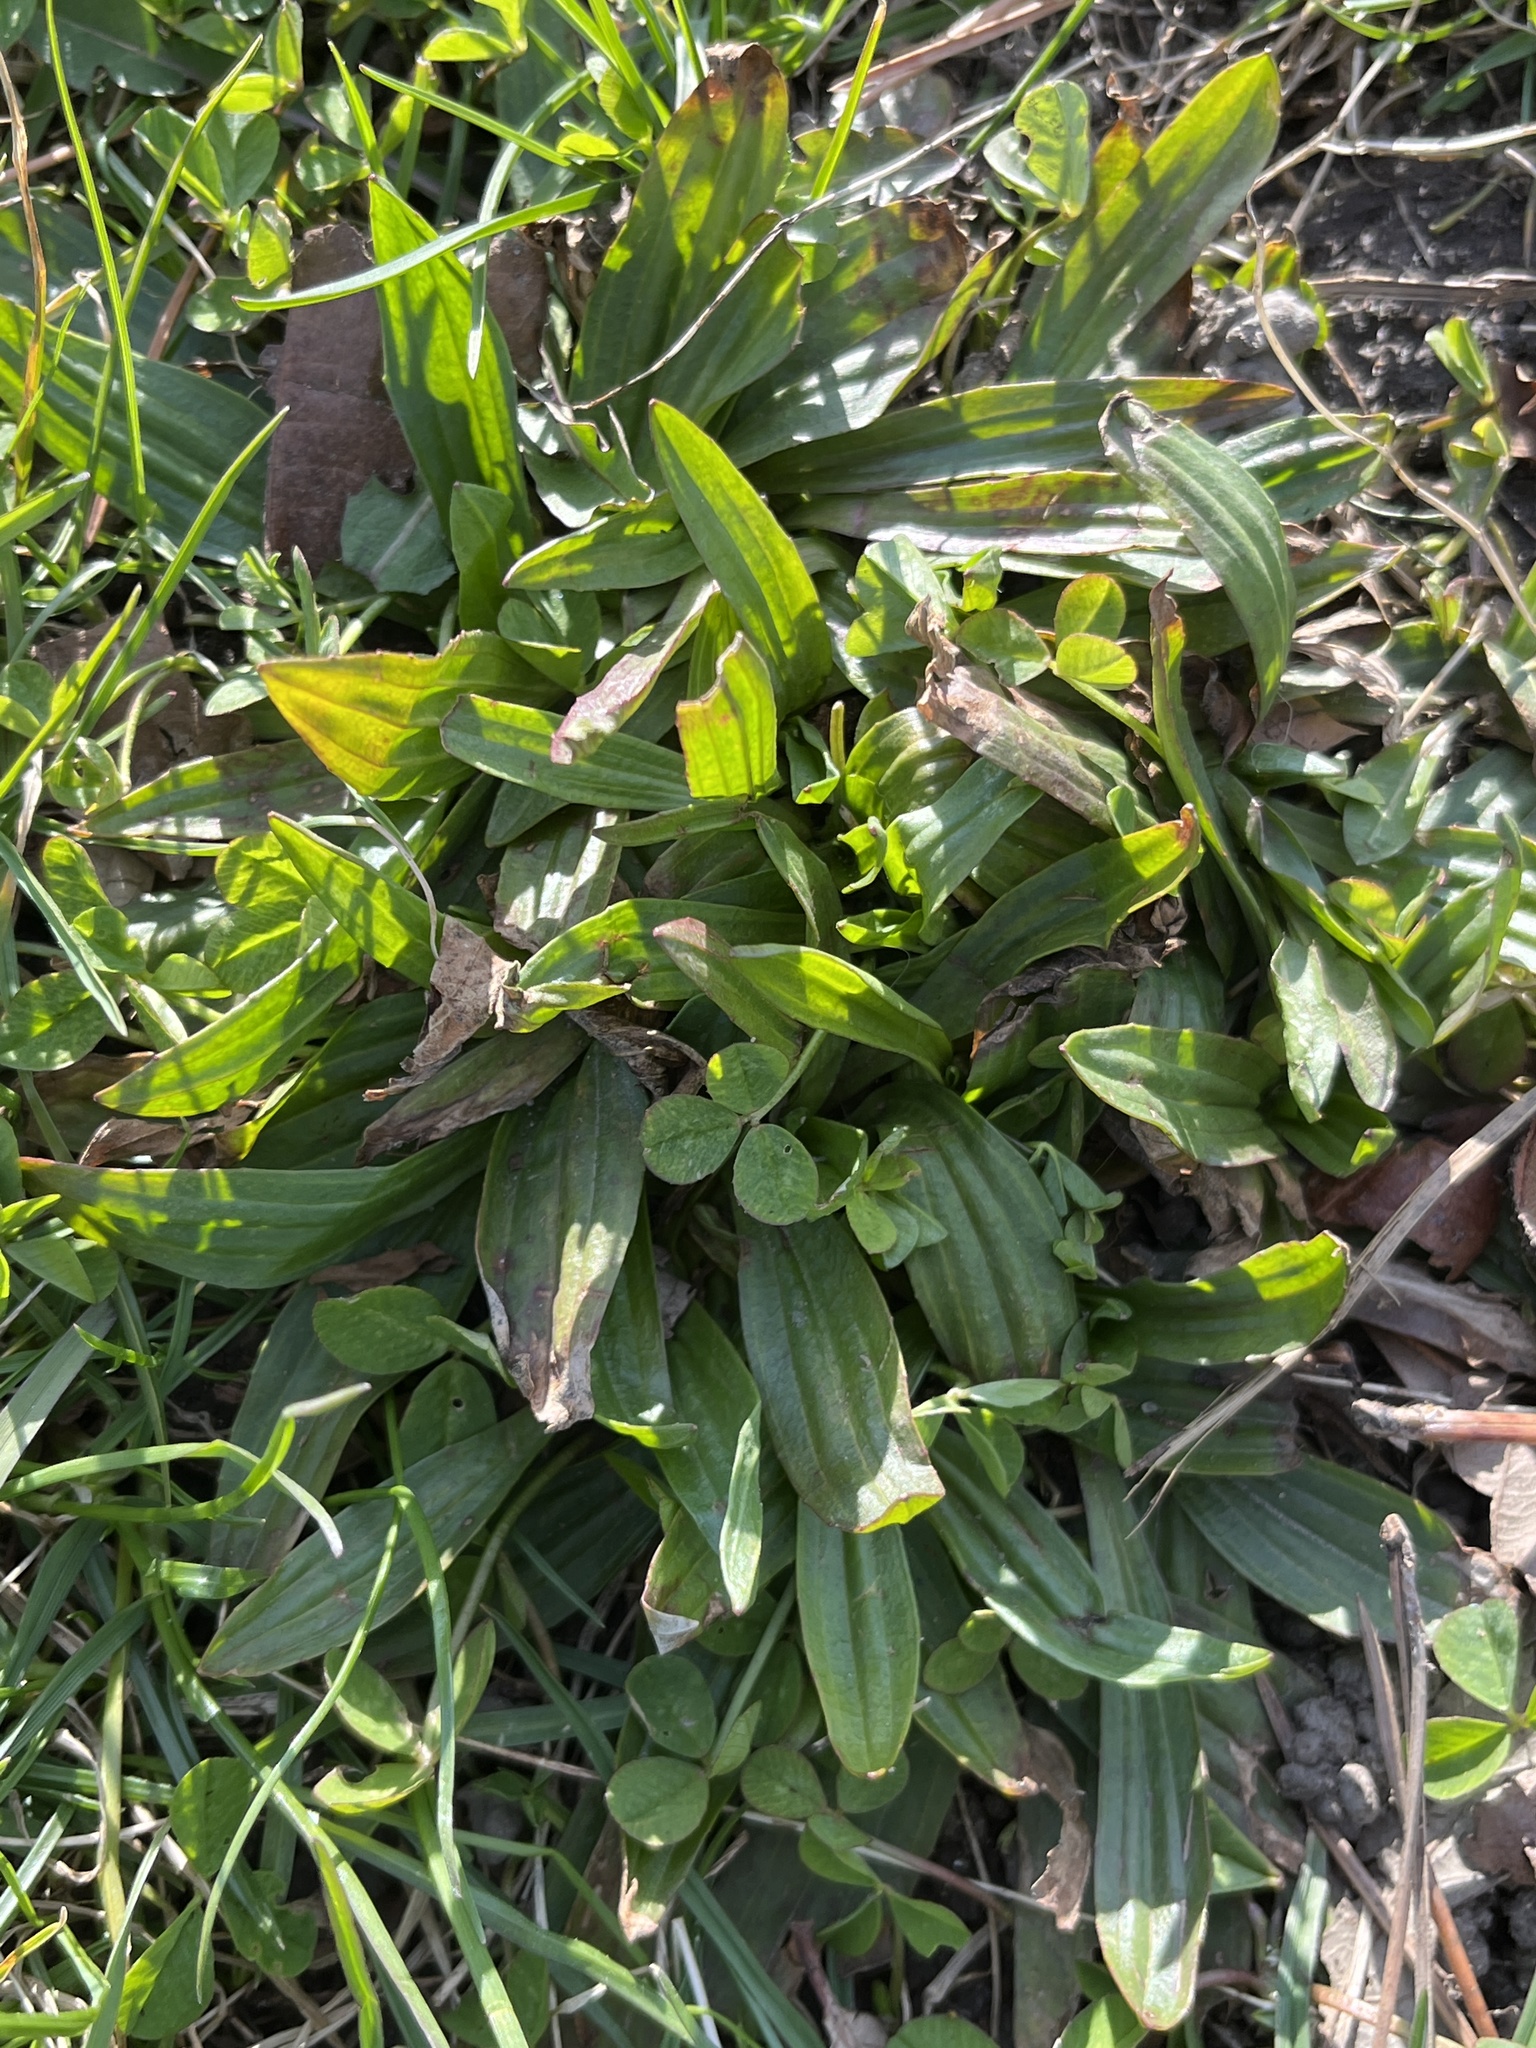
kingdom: Plantae
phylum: Tracheophyta
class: Magnoliopsida
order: Lamiales
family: Plantaginaceae
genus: Plantago
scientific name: Plantago lanceolata
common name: Ribwort plantain
